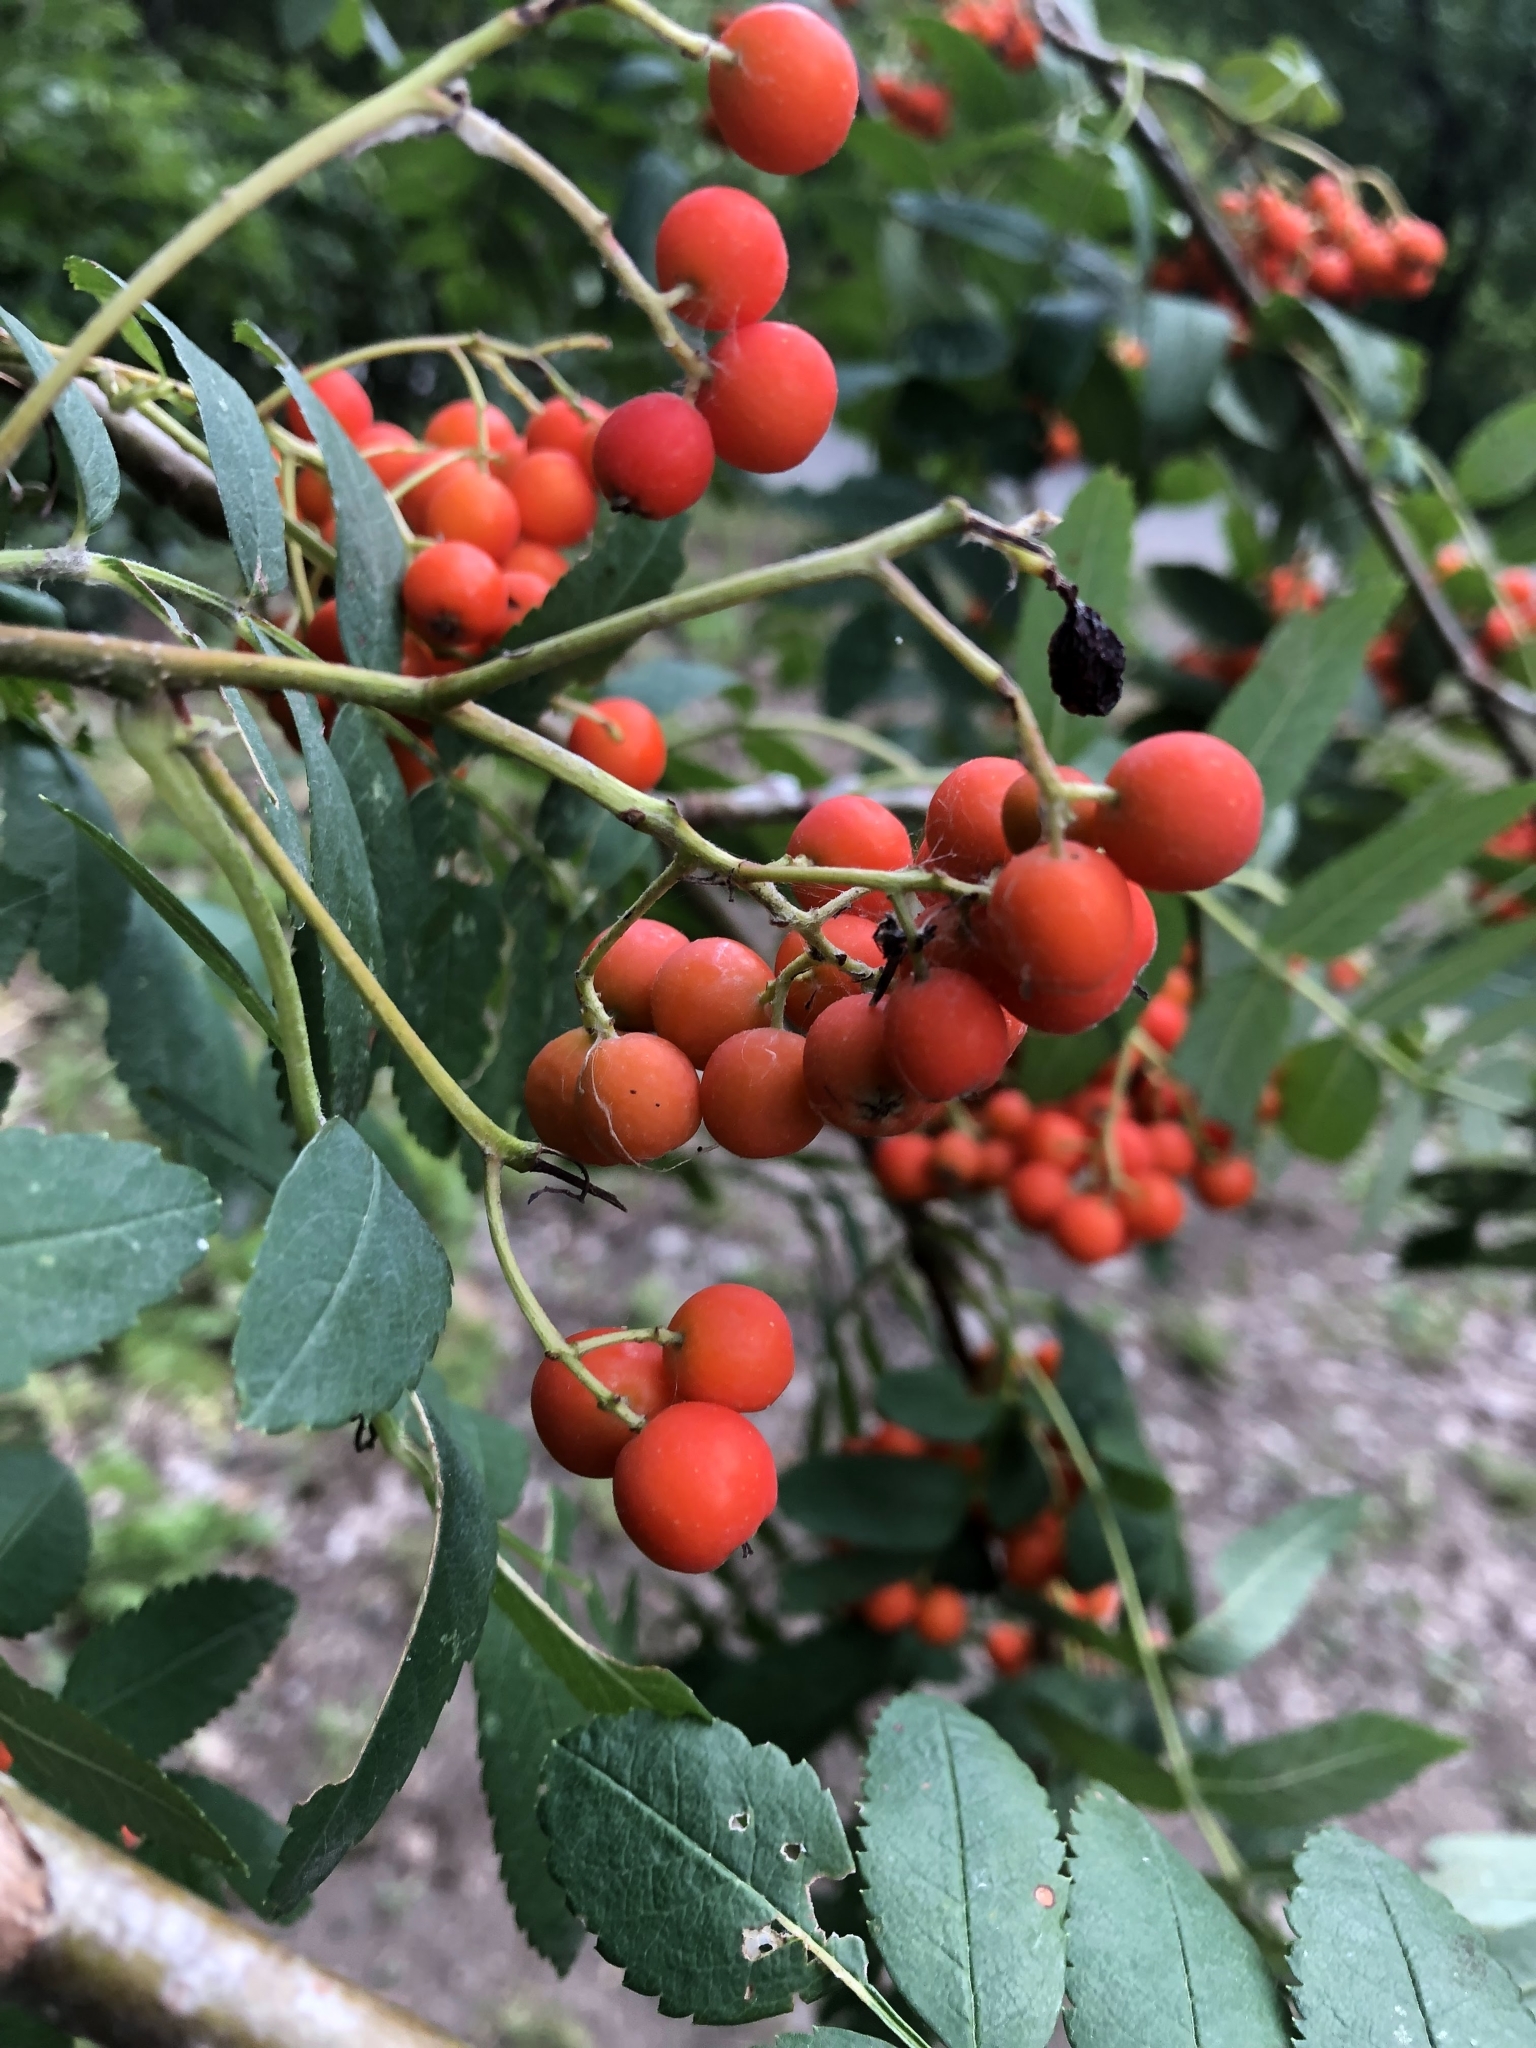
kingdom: Plantae
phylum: Tracheophyta
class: Magnoliopsida
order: Rosales
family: Rosaceae
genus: Sorbus
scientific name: Sorbus aucuparia
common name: Rowan
